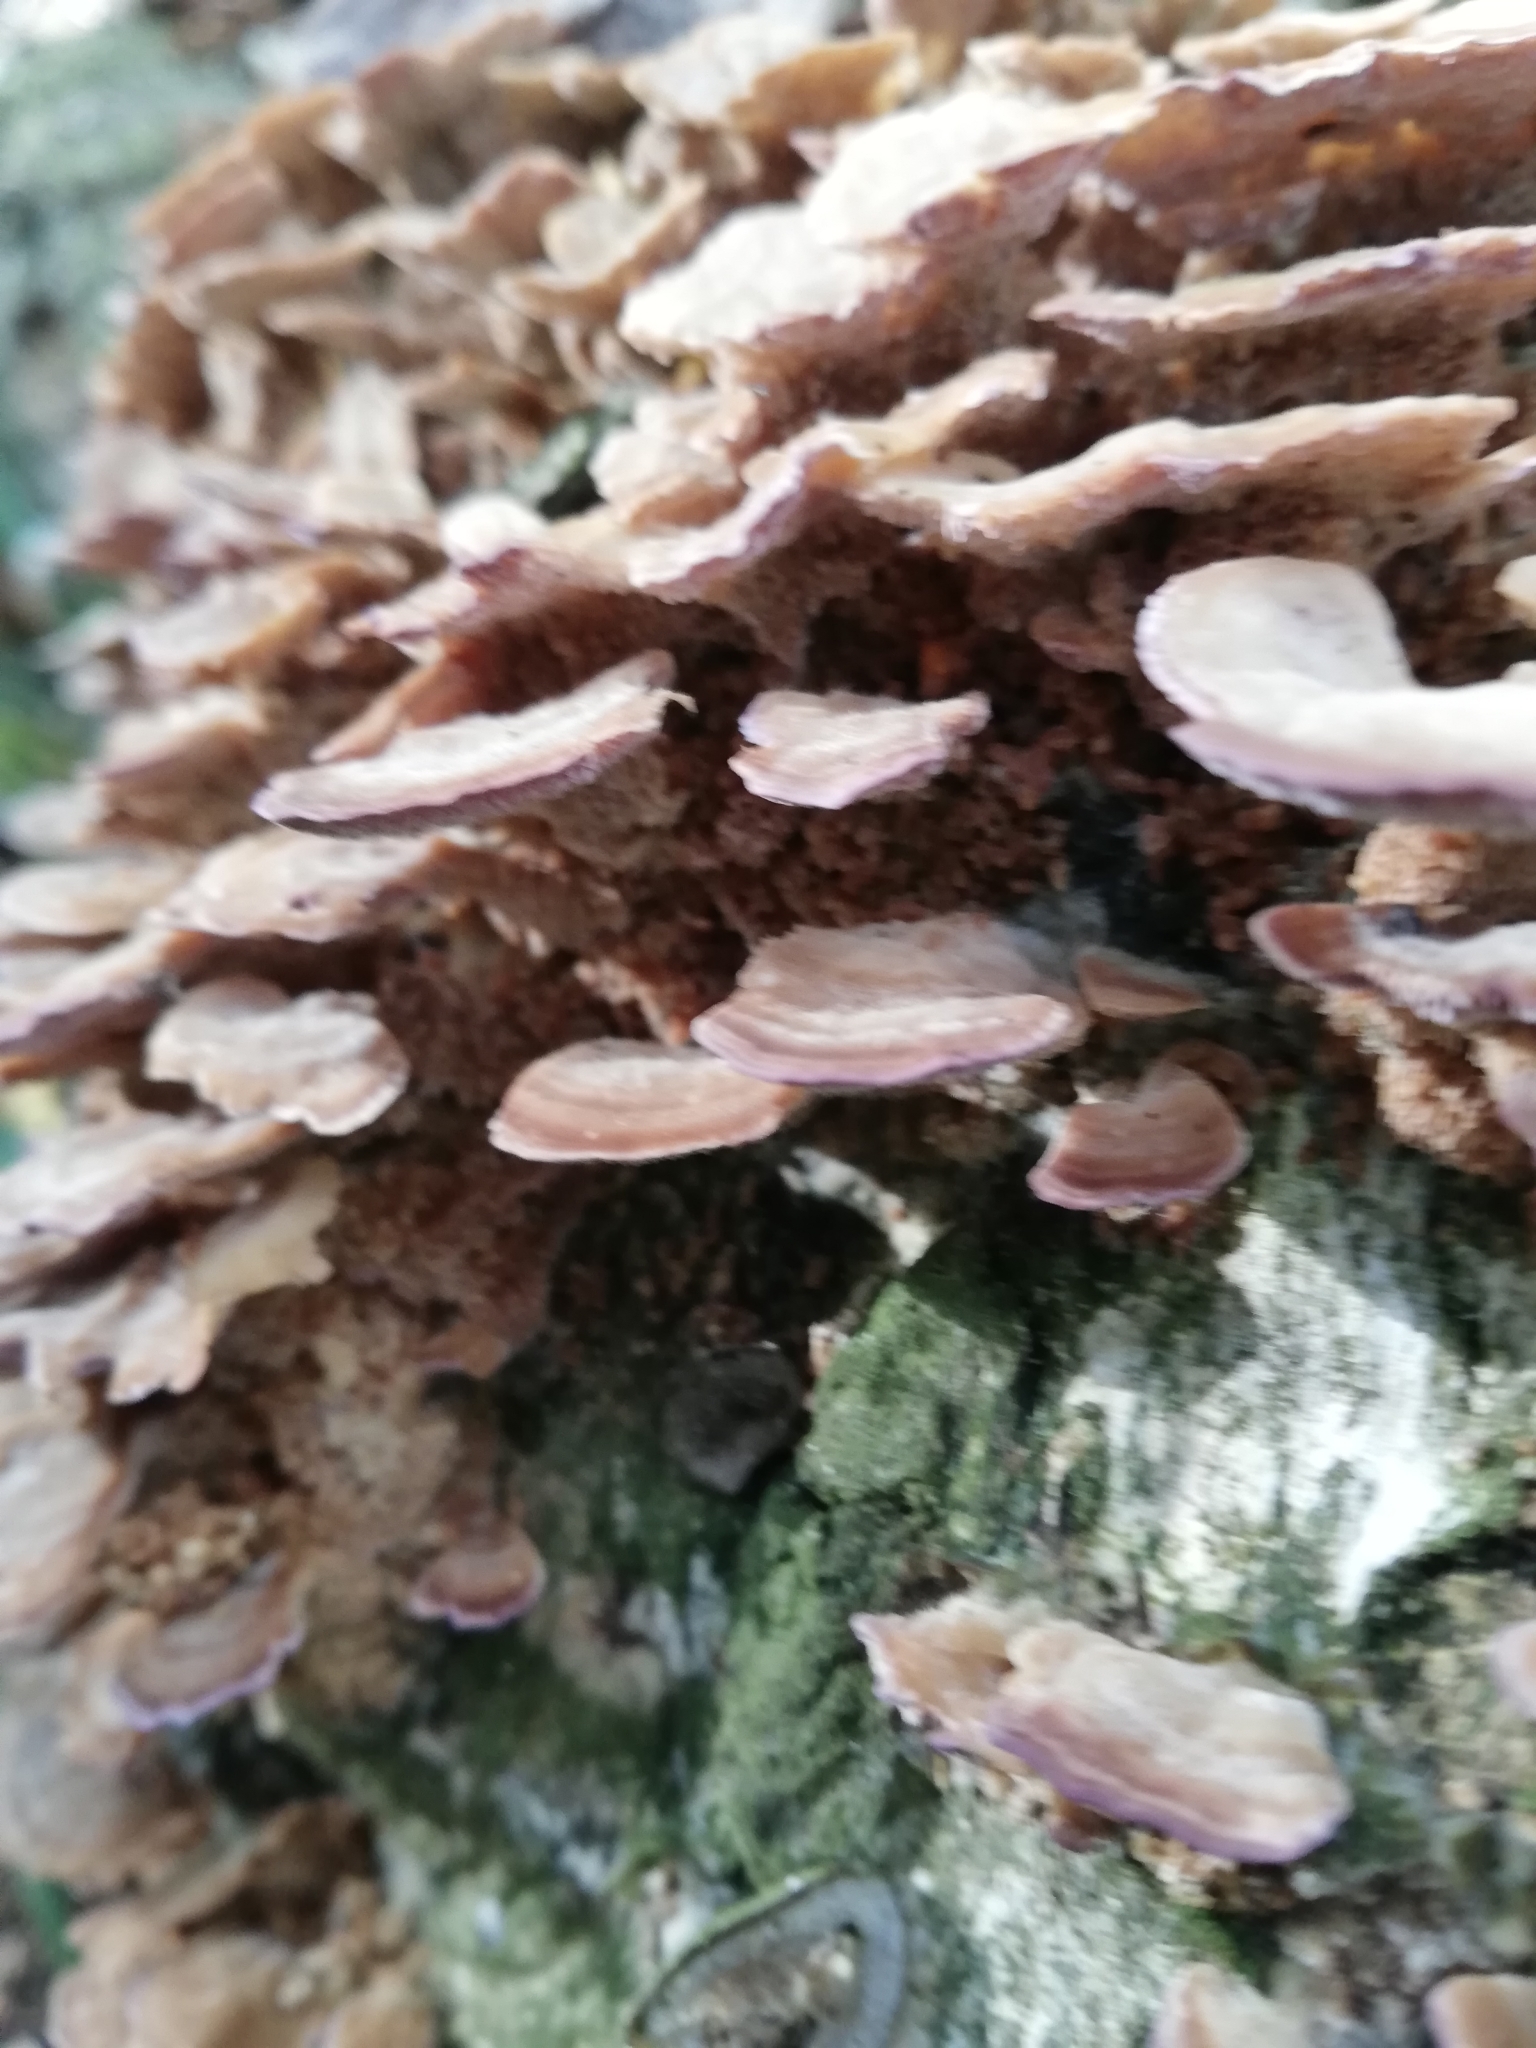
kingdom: Fungi
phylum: Basidiomycota
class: Agaricomycetes
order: Hymenochaetales
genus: Trichaptum
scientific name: Trichaptum biforme
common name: Violet-toothed polypore
